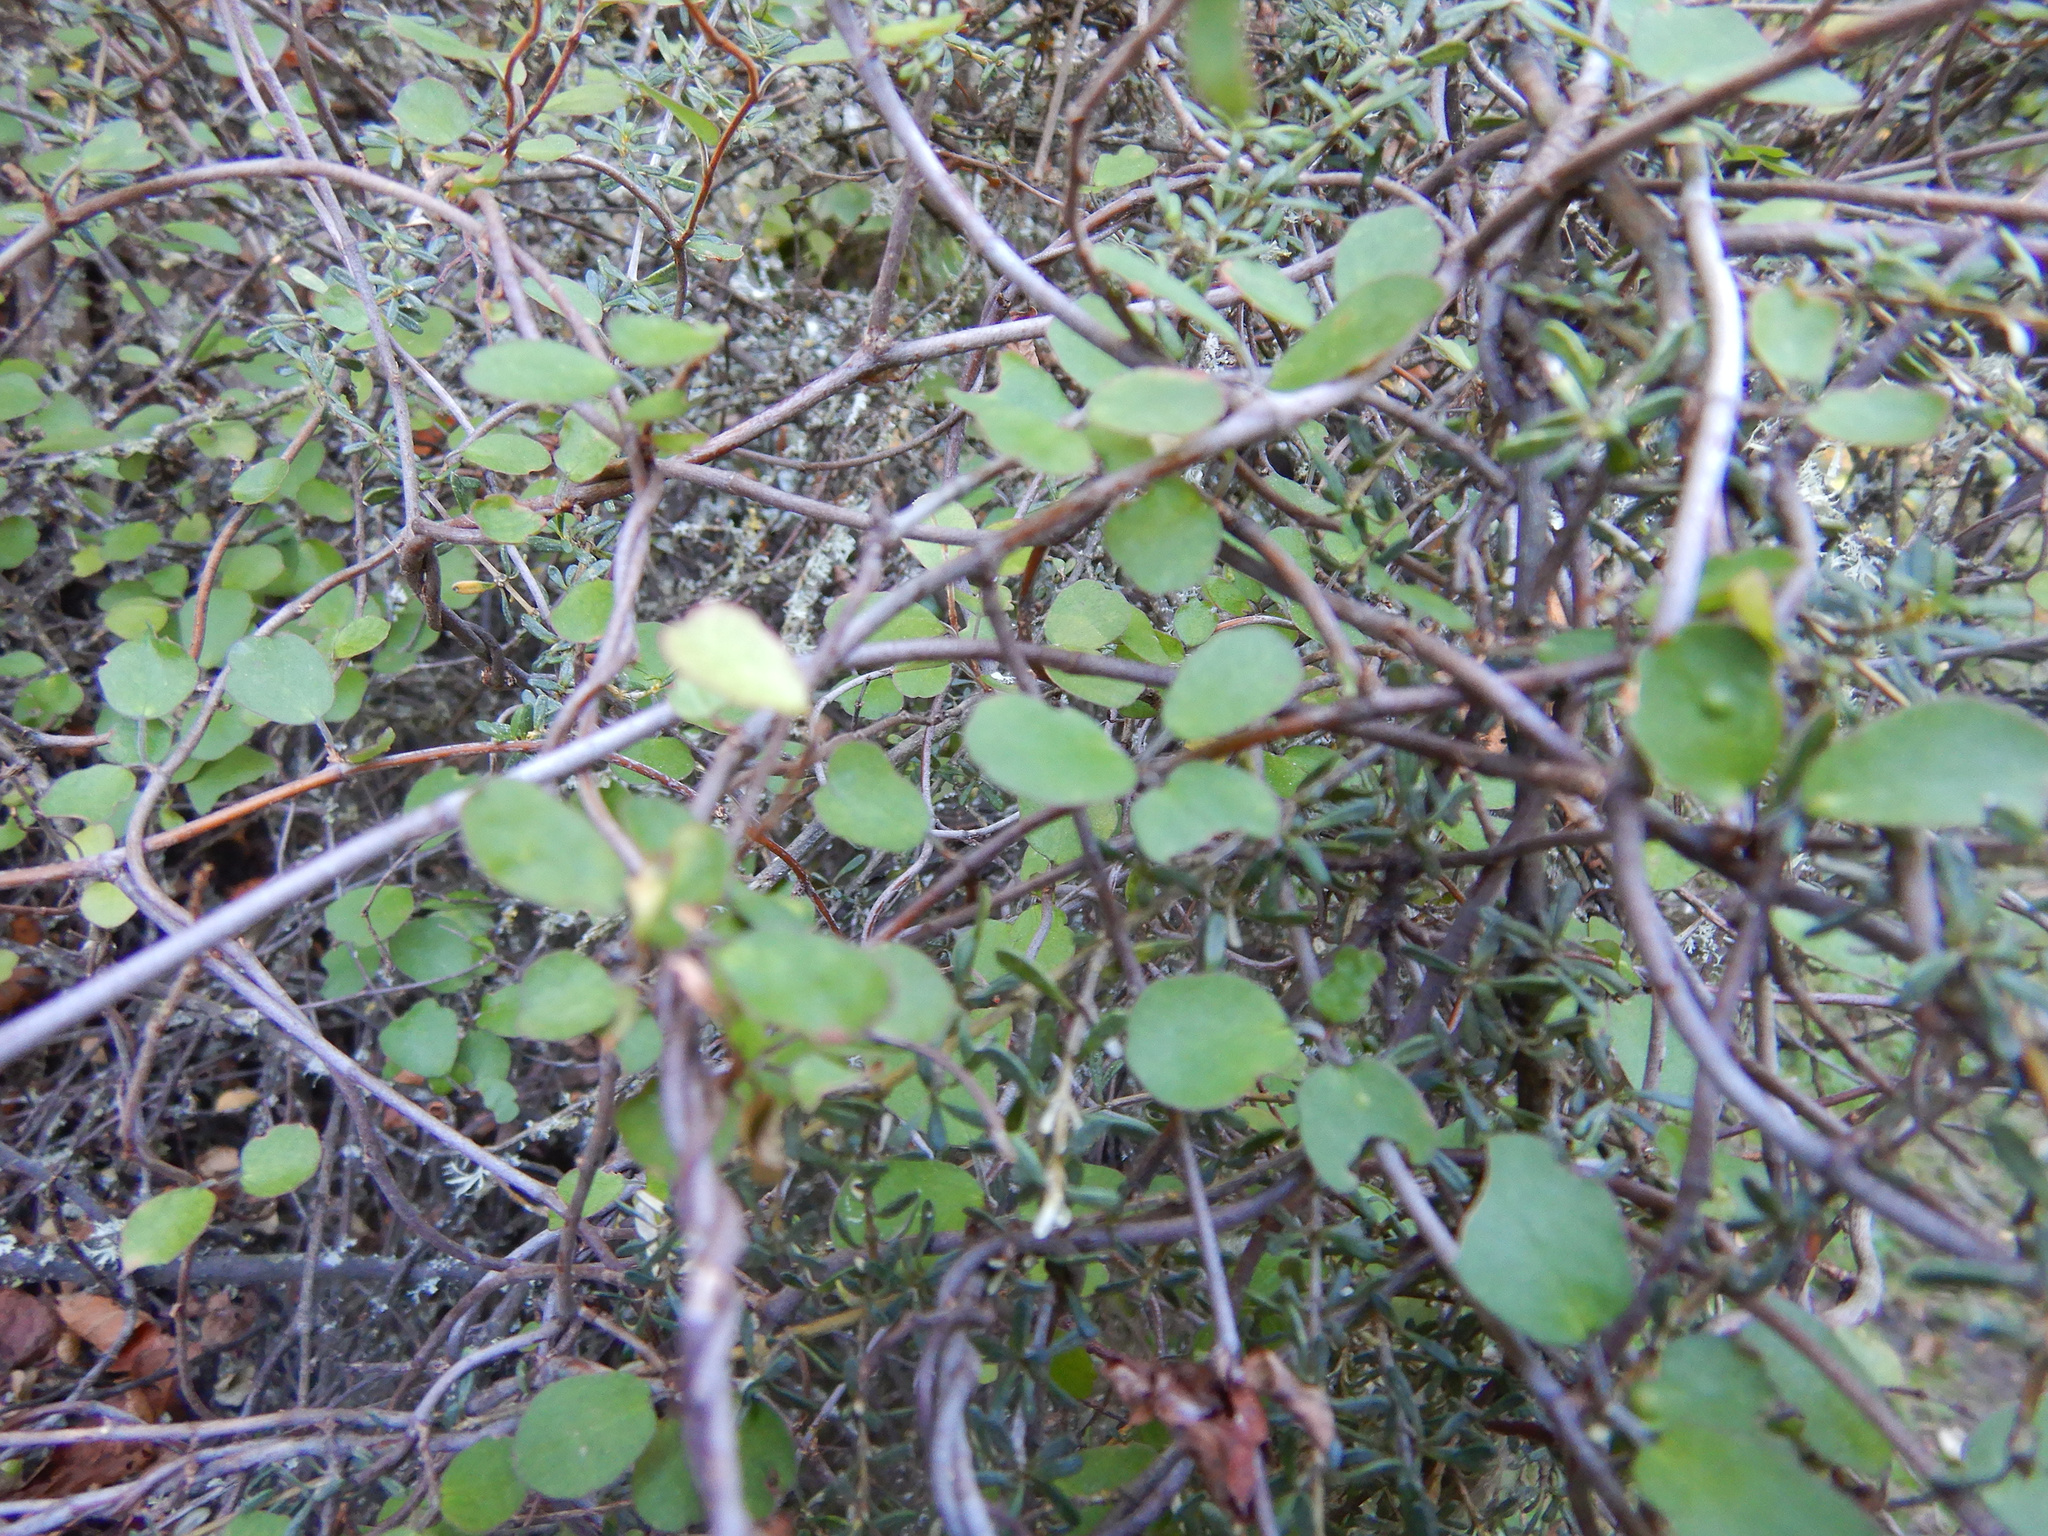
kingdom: Plantae
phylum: Tracheophyta
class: Magnoliopsida
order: Caryophyllales
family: Polygonaceae
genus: Muehlenbeckia
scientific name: Muehlenbeckia complexa
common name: Wireplant
